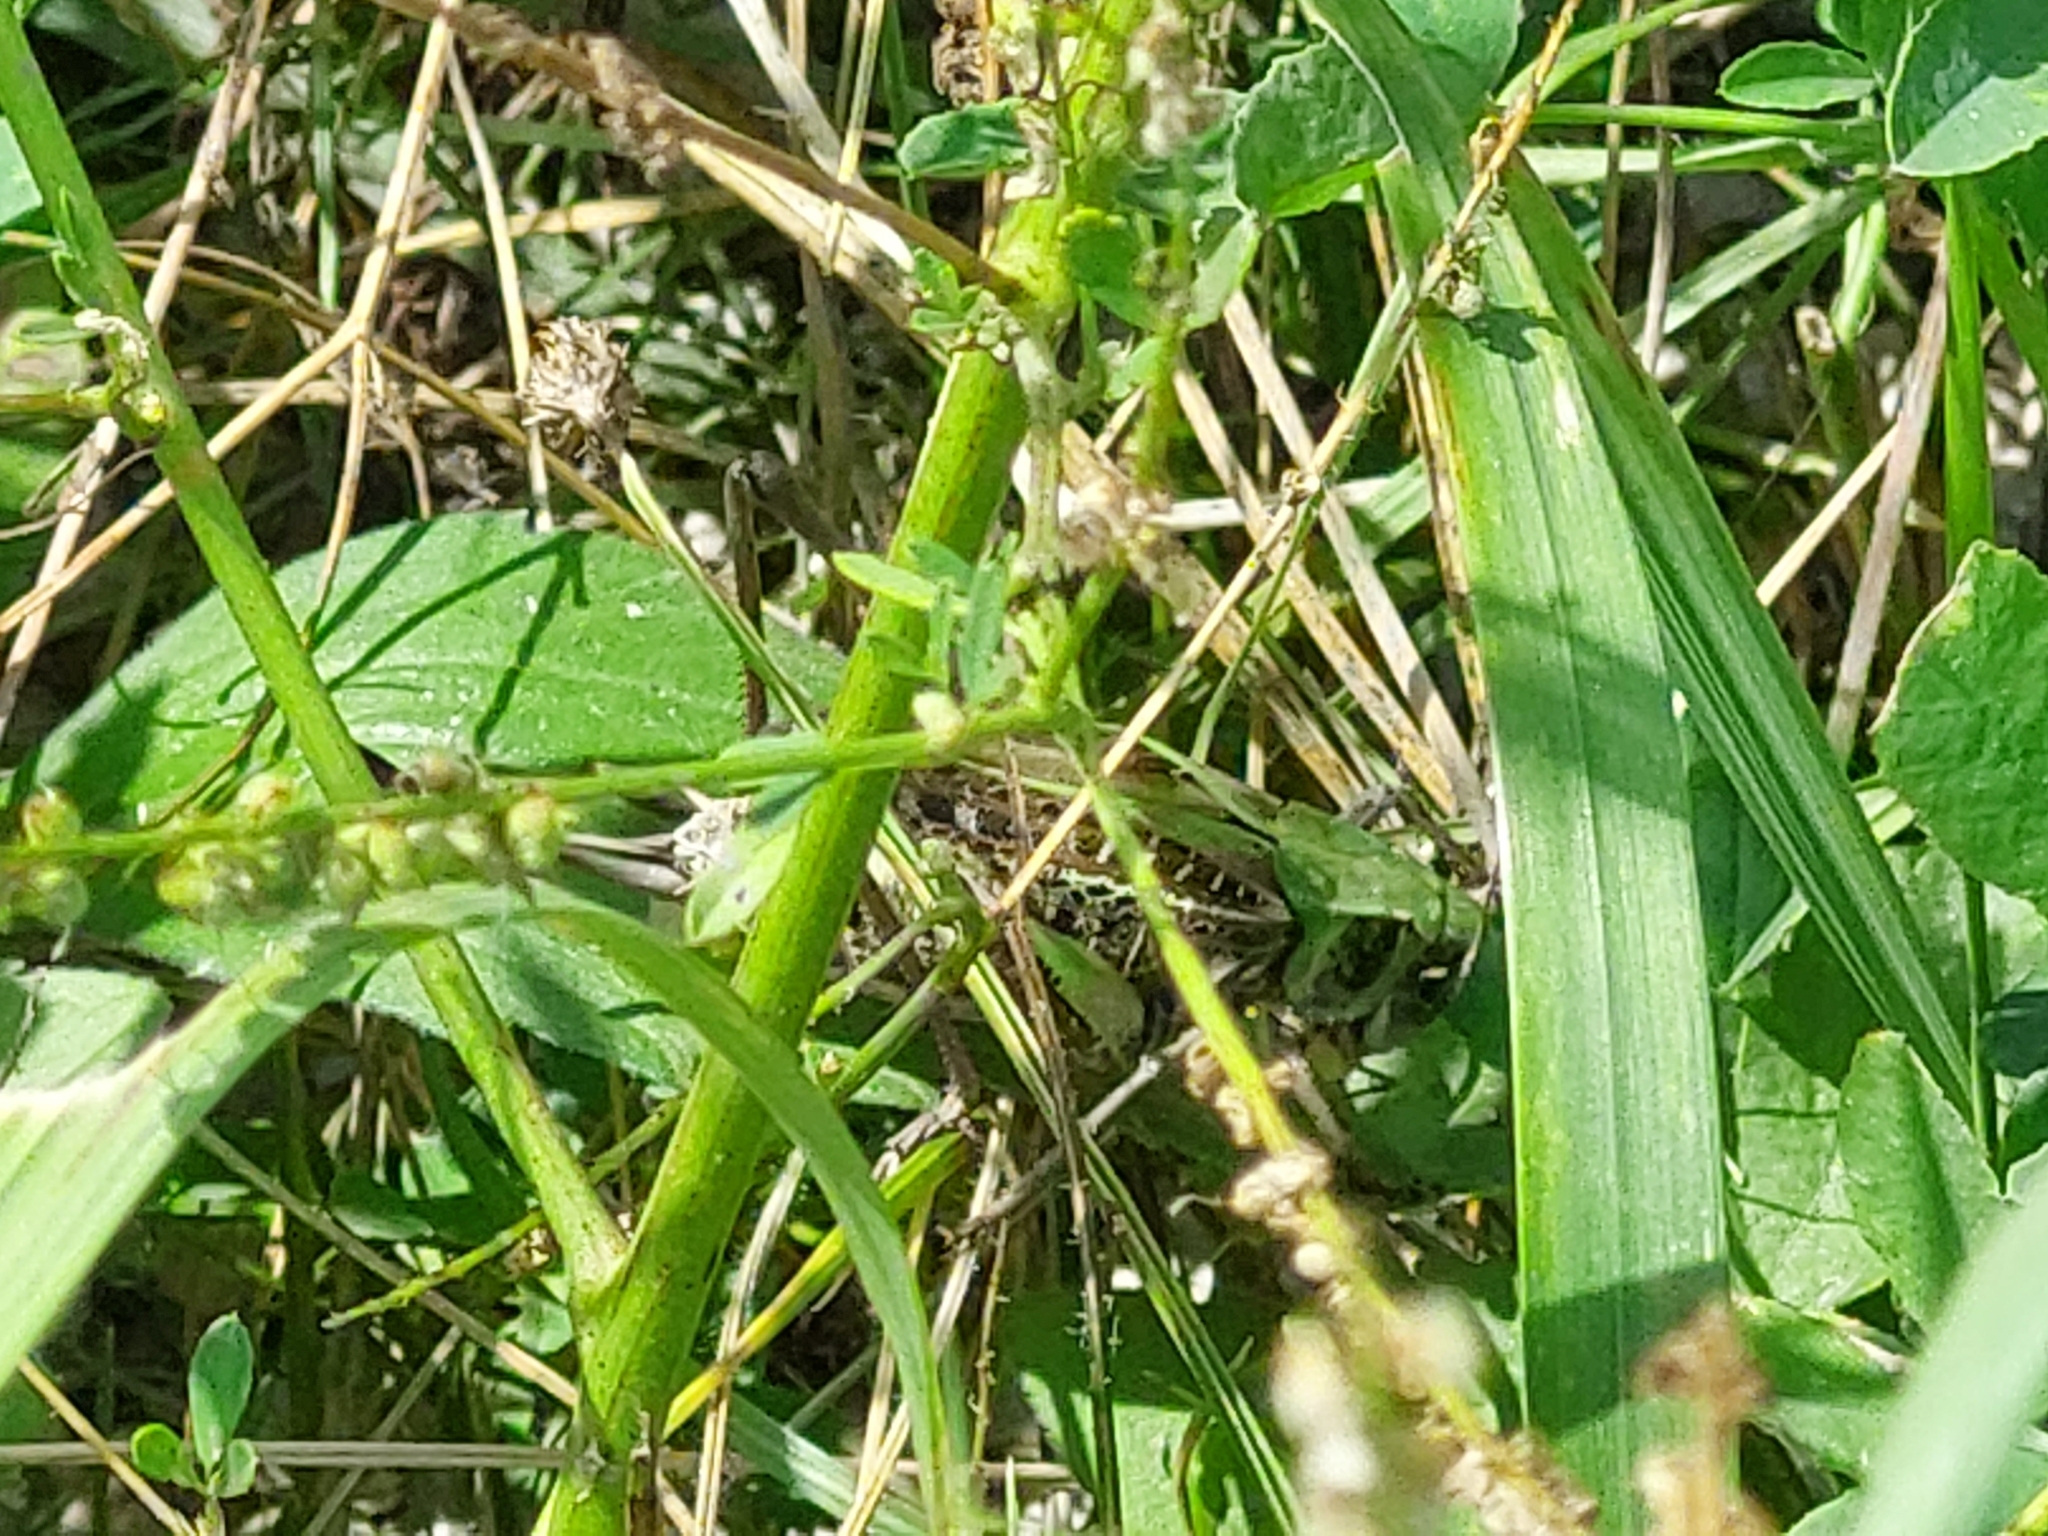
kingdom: Animalia
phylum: Arthropoda
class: Insecta
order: Orthoptera
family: Tettigoniidae
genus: Decticus
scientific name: Decticus verrucivorus
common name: Wart-biter
